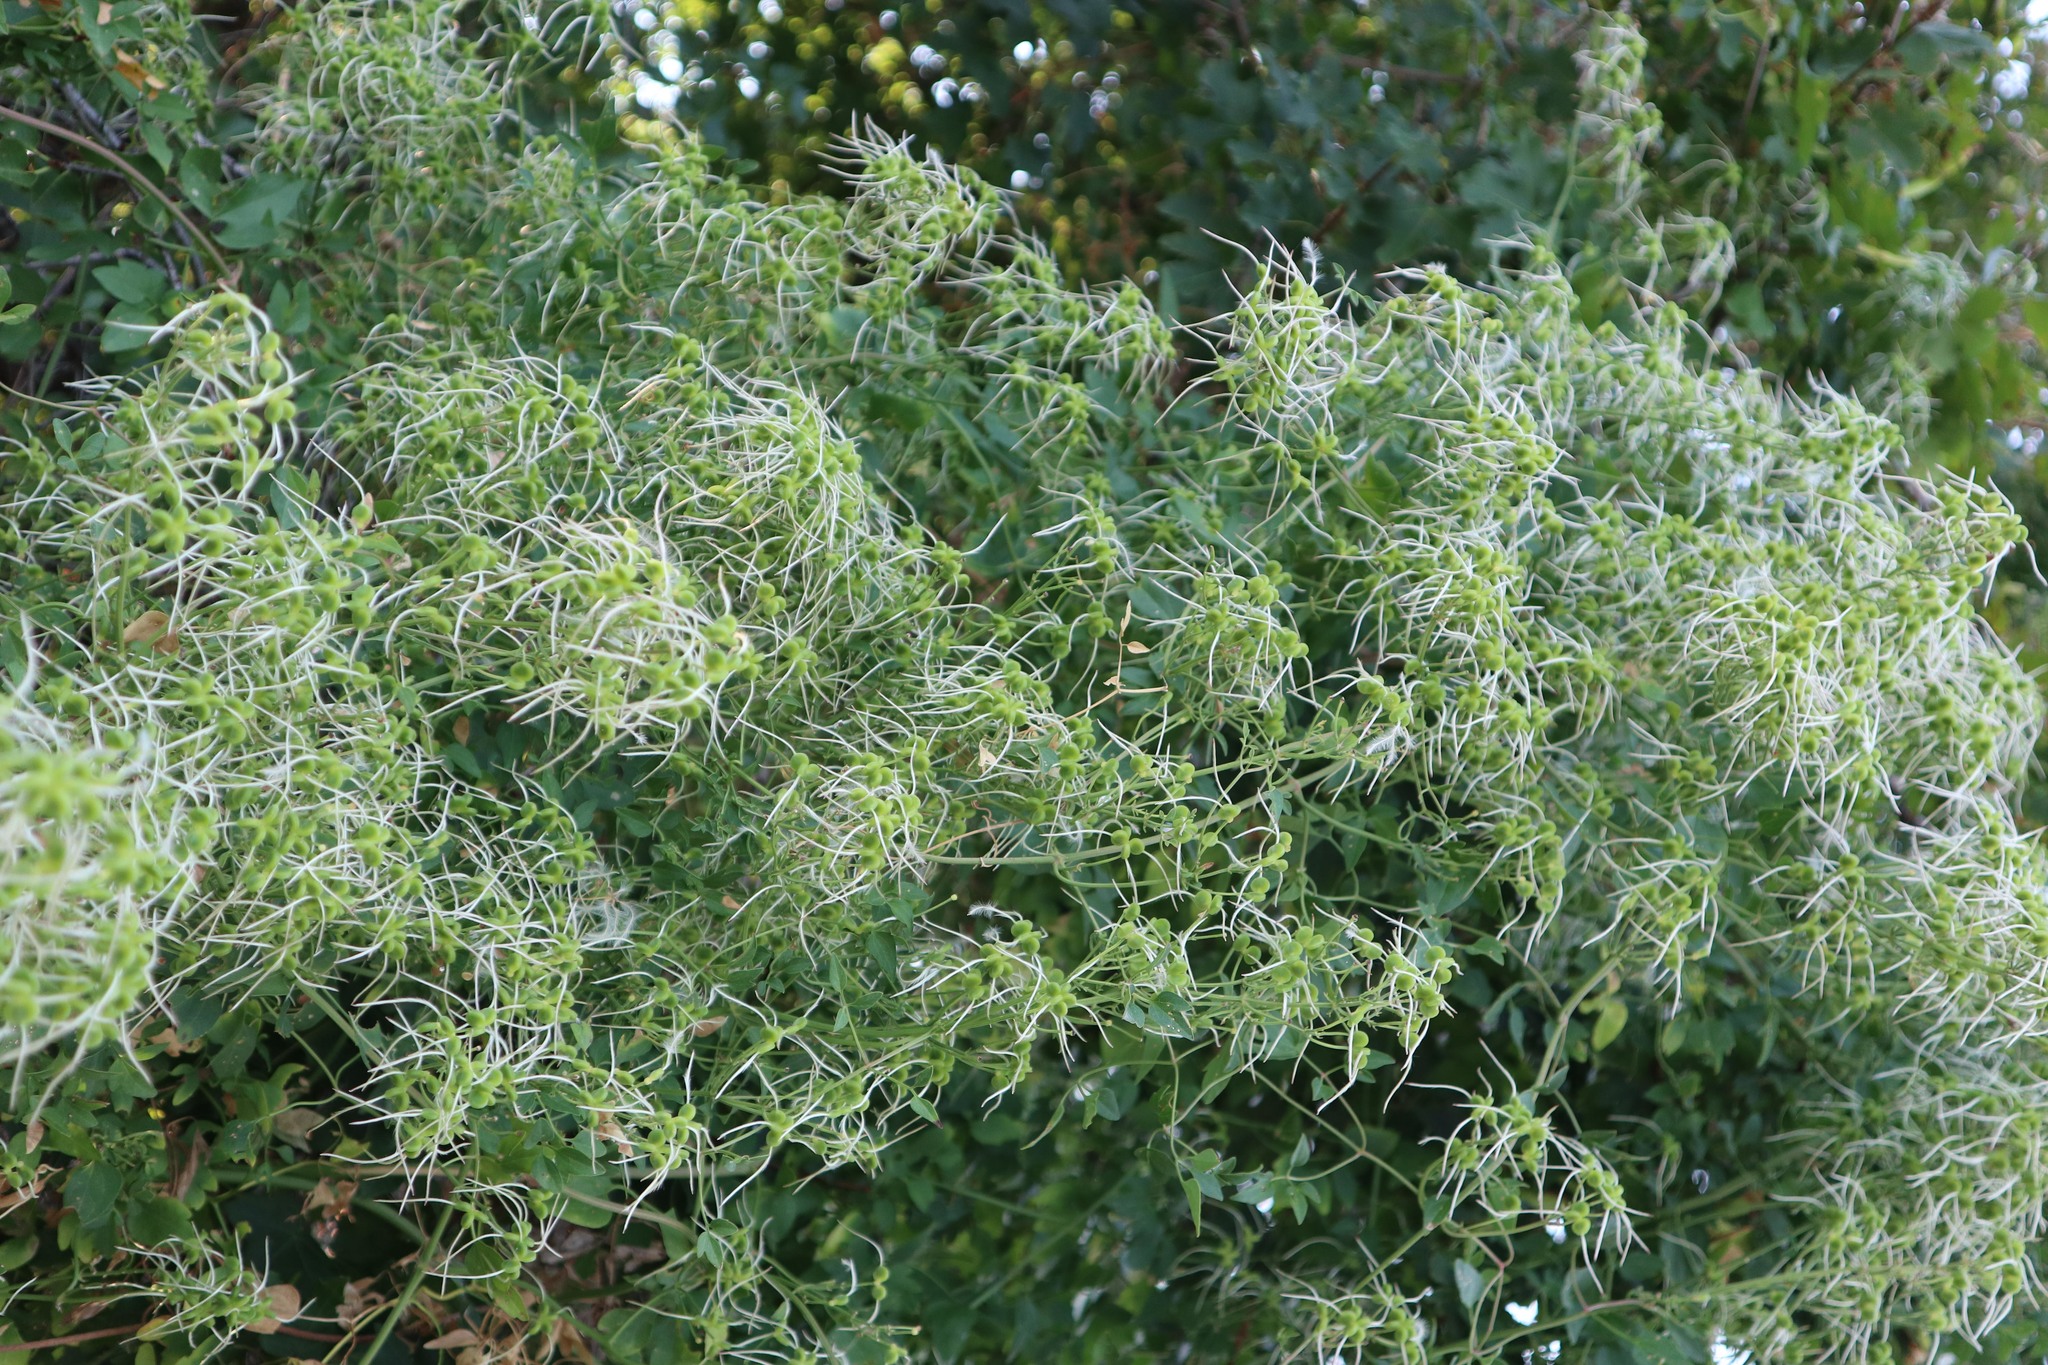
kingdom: Plantae
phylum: Tracheophyta
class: Magnoliopsida
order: Ranunculales
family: Ranunculaceae
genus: Clematis
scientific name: Clematis flammula
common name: Virgin's-bower
